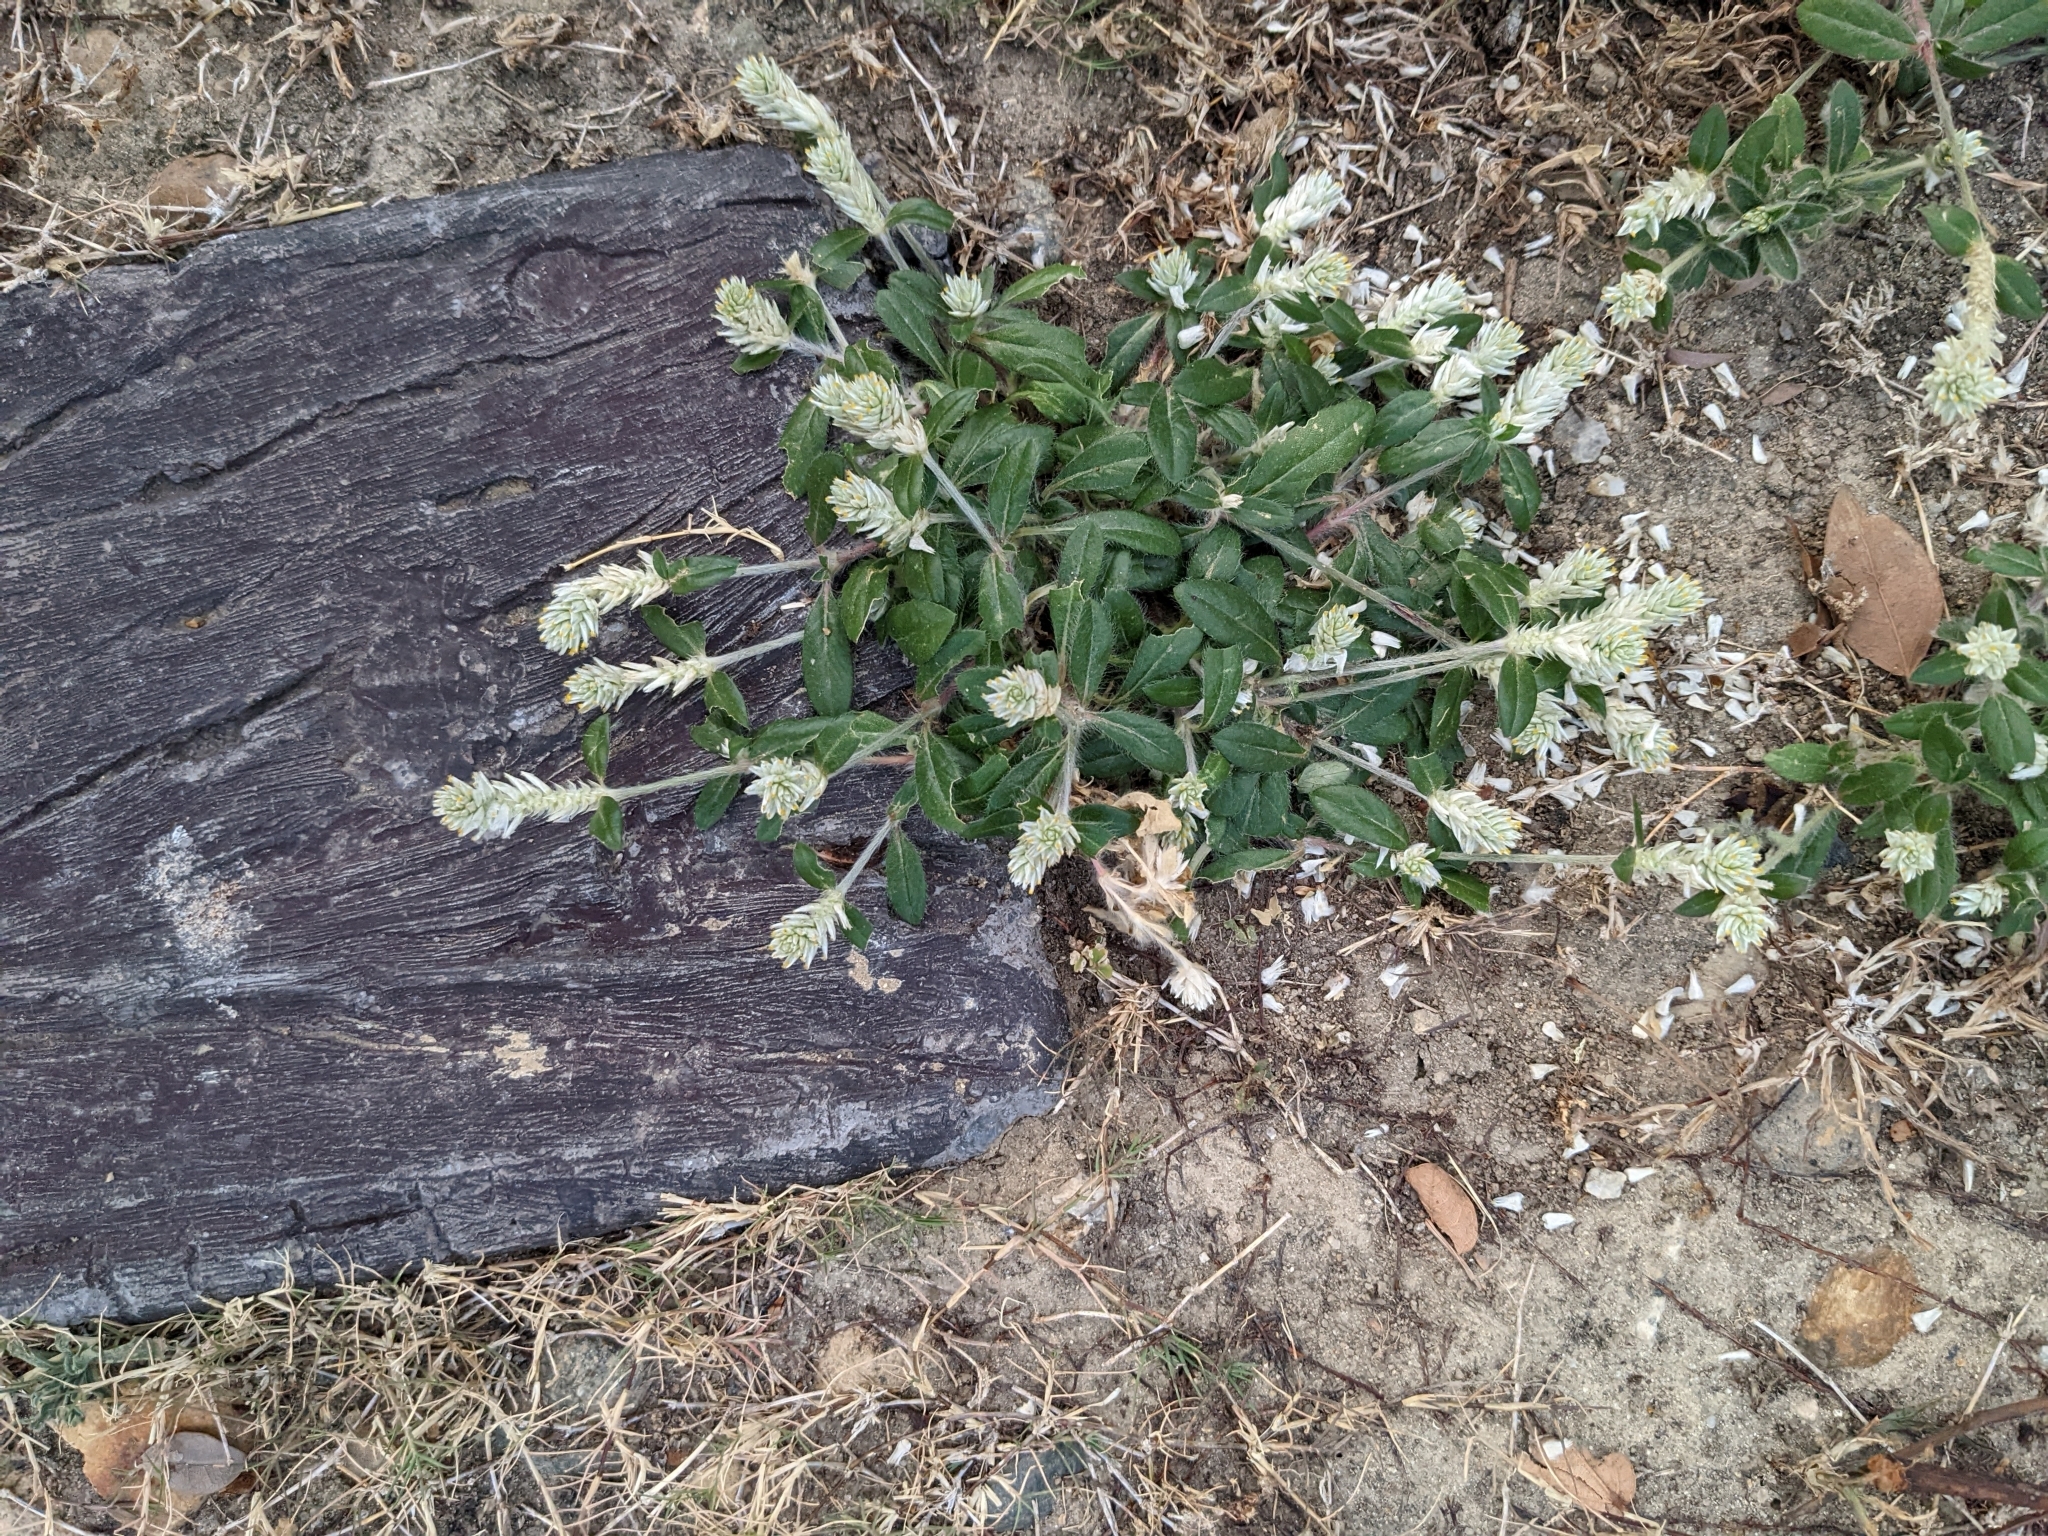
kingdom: Plantae
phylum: Tracheophyta
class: Magnoliopsida
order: Caryophyllales
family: Amaranthaceae
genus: Gomphrena
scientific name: Gomphrena celosioides
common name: Gomphrena-weed
